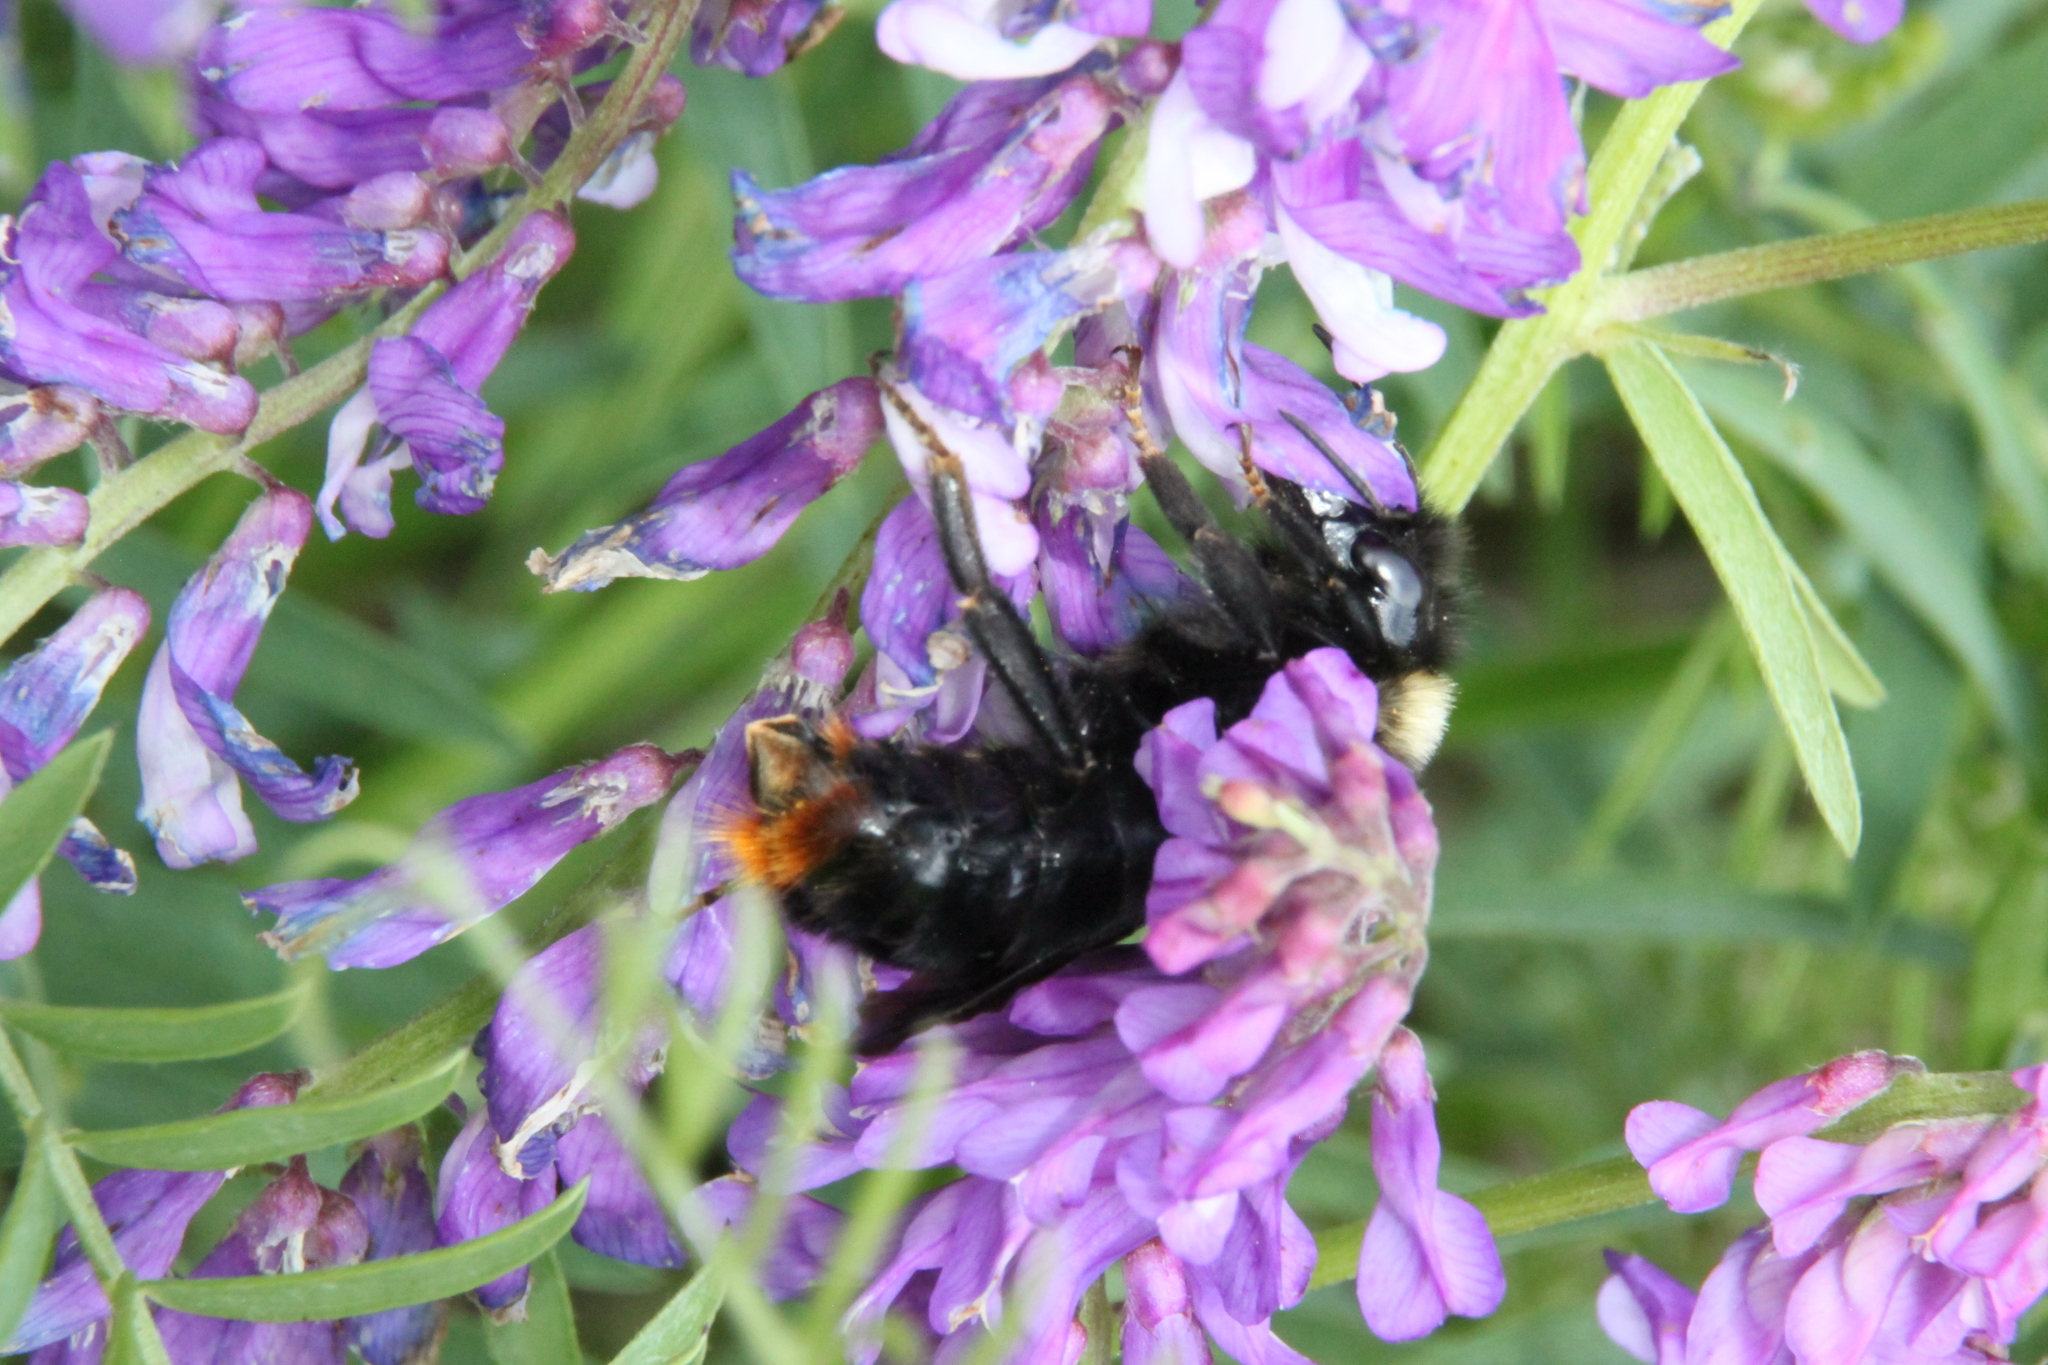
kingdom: Animalia
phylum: Arthropoda
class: Insecta
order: Hymenoptera
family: Apidae
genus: Bombus
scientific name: Bombus rupestris
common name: Hill cuckoo-bee
